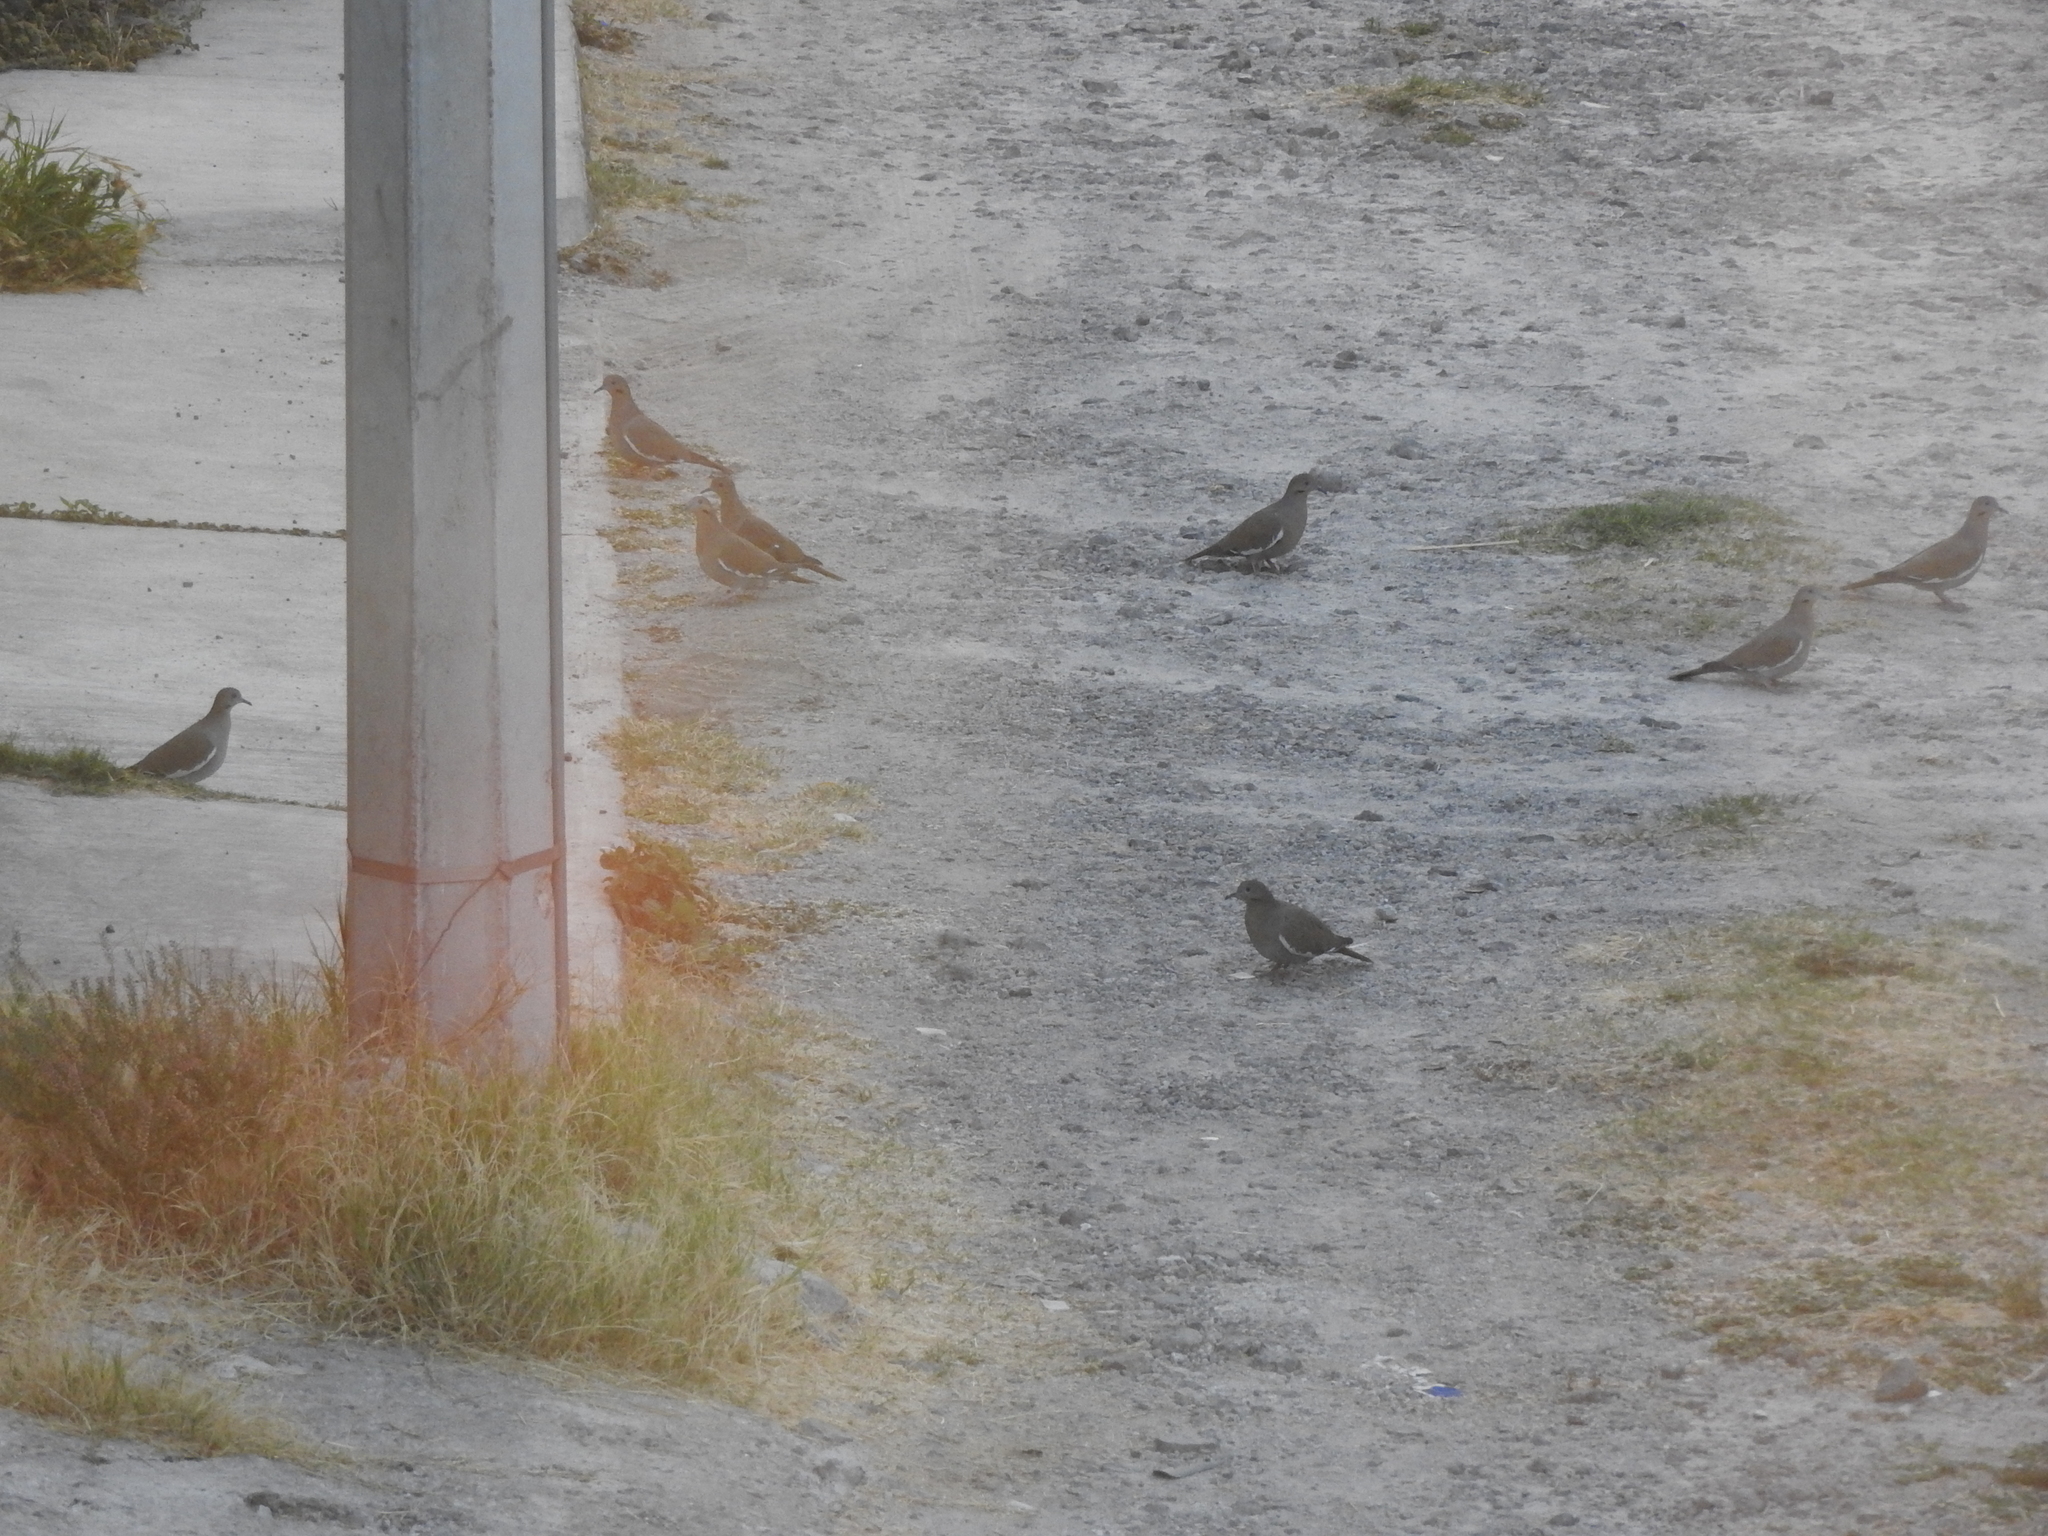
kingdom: Animalia
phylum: Chordata
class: Aves
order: Columbiformes
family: Columbidae
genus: Zenaida
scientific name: Zenaida asiatica
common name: White-winged dove
